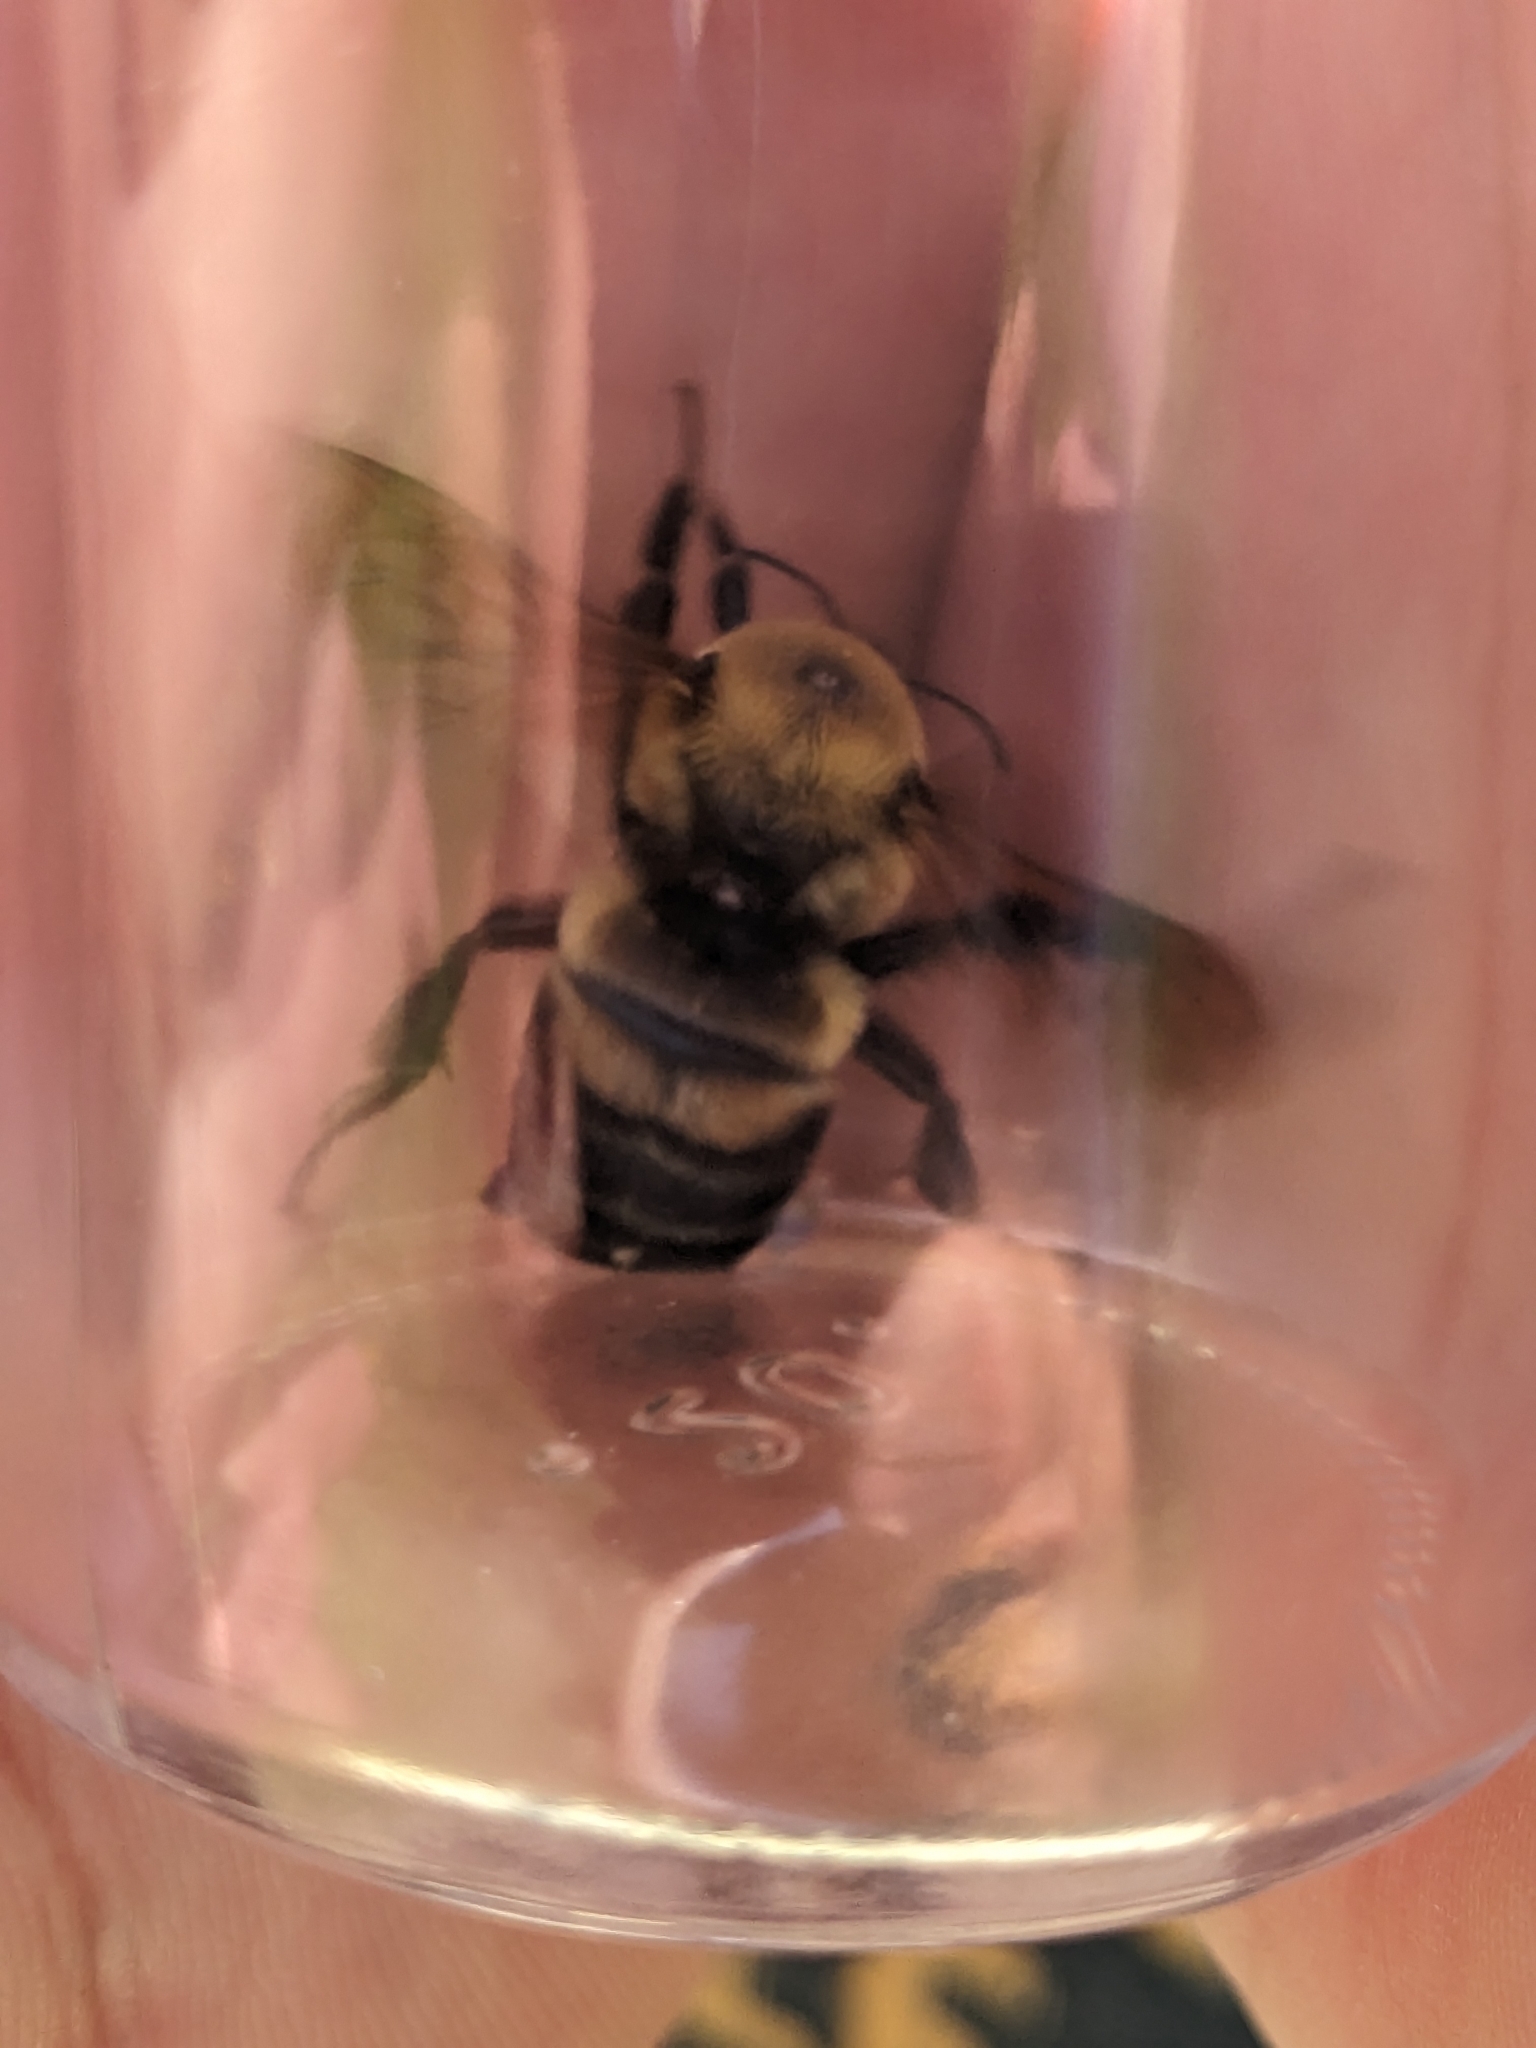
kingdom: Animalia
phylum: Arthropoda
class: Insecta
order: Hymenoptera
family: Apidae
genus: Bombus
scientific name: Bombus griseocollis
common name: Brown-belted bumble bee
